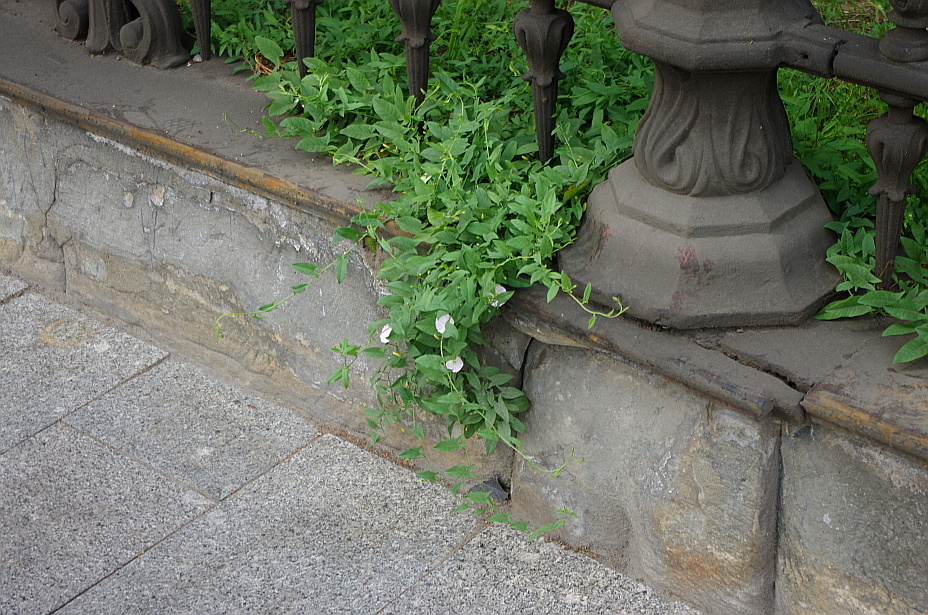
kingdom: Plantae
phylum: Tracheophyta
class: Magnoliopsida
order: Solanales
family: Convolvulaceae
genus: Convolvulus
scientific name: Convolvulus arvensis
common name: Field bindweed
